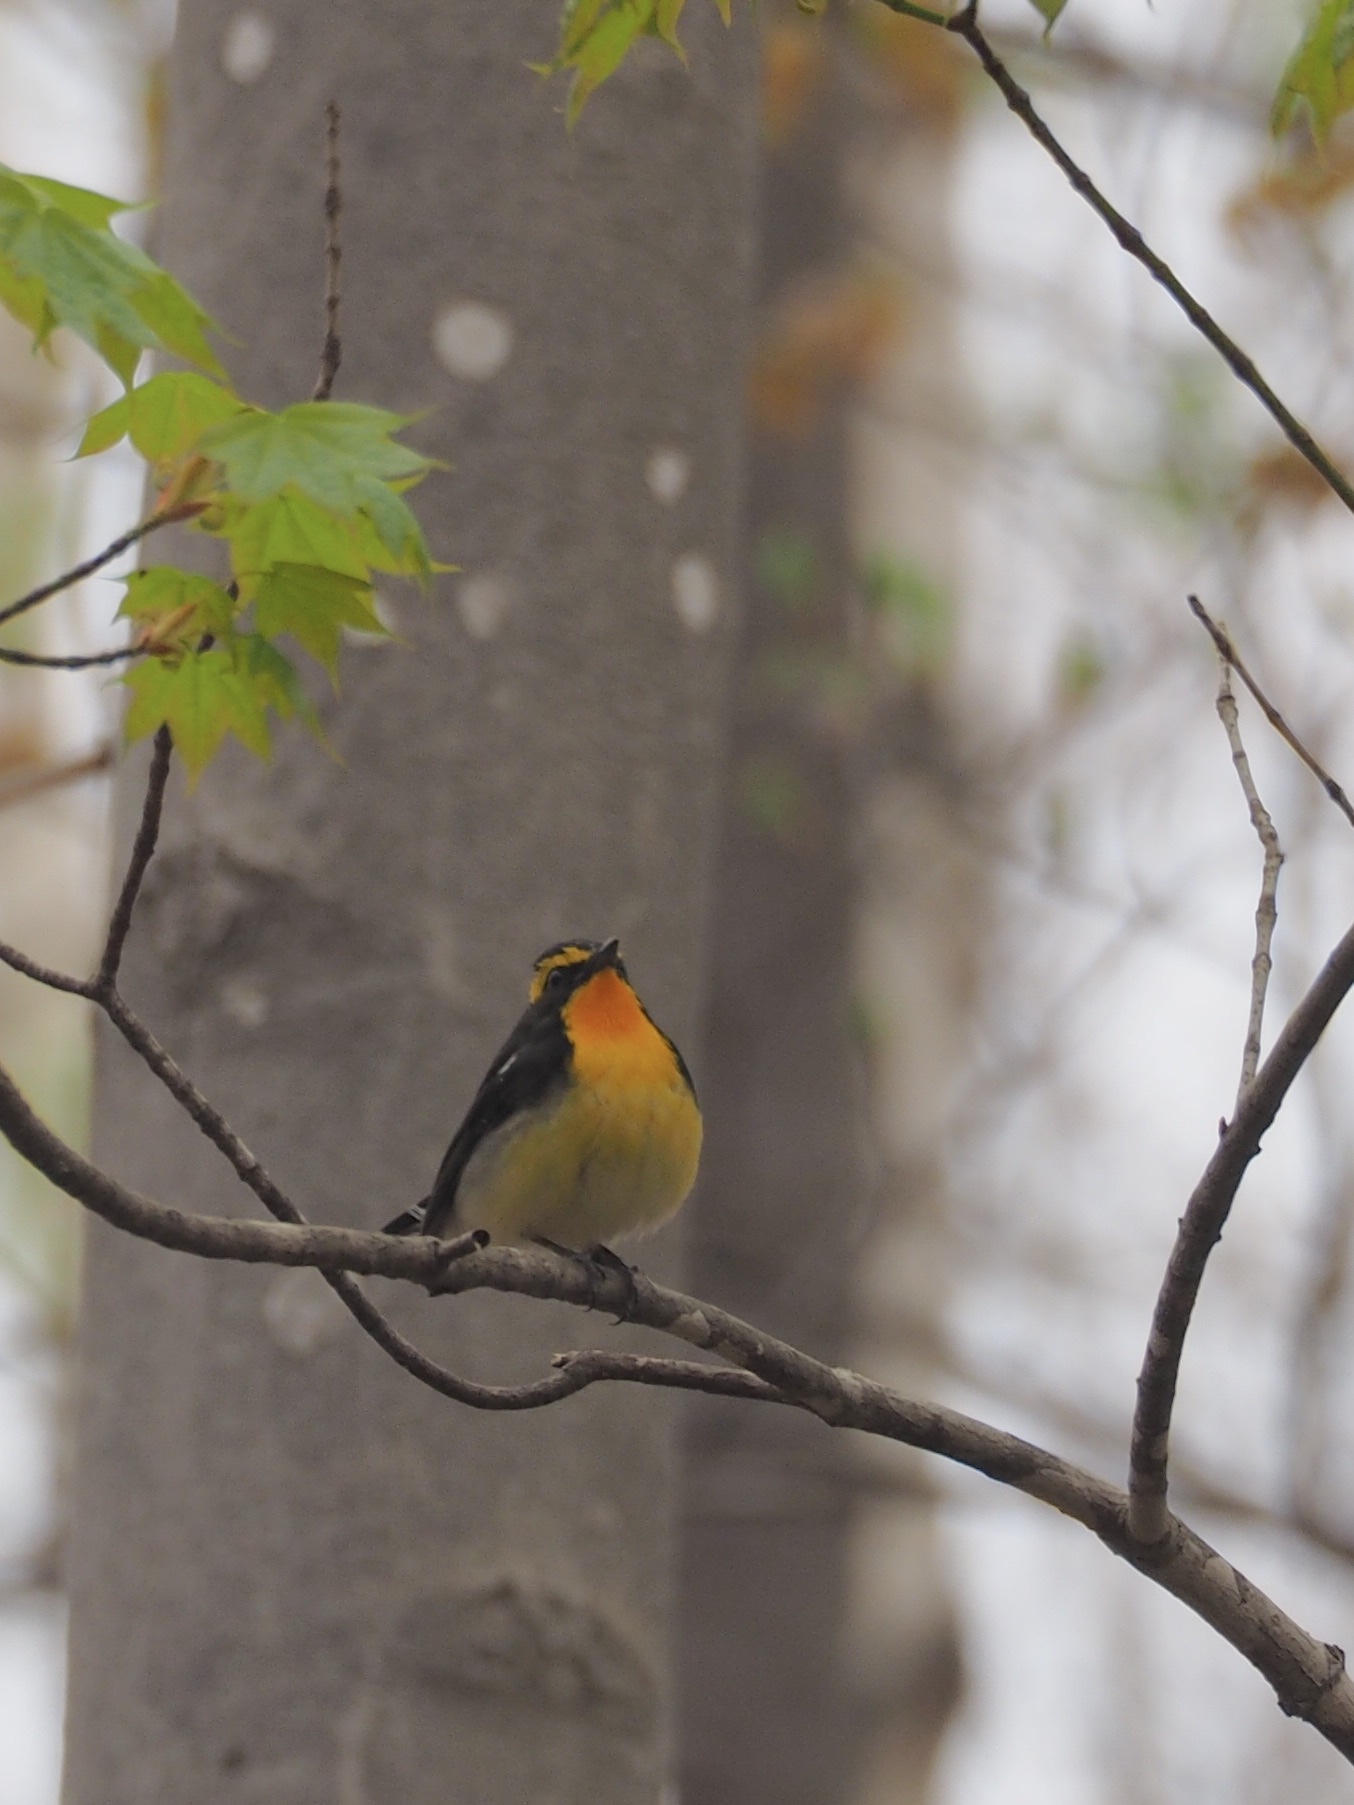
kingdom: Animalia
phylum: Chordata
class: Aves
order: Passeriformes
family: Muscicapidae
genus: Ficedula
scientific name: Ficedula narcissina
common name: Narcissus flycatcher
